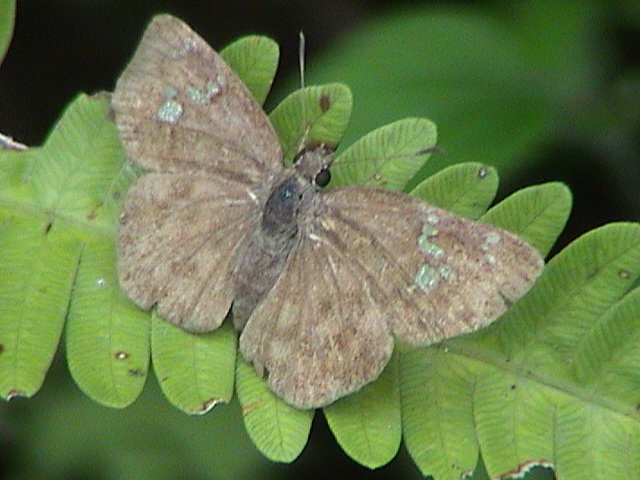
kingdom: Animalia
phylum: Arthropoda
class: Insecta
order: Lepidoptera
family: Hesperiidae
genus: Pseudocoladenia
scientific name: Pseudocoladenia dan
